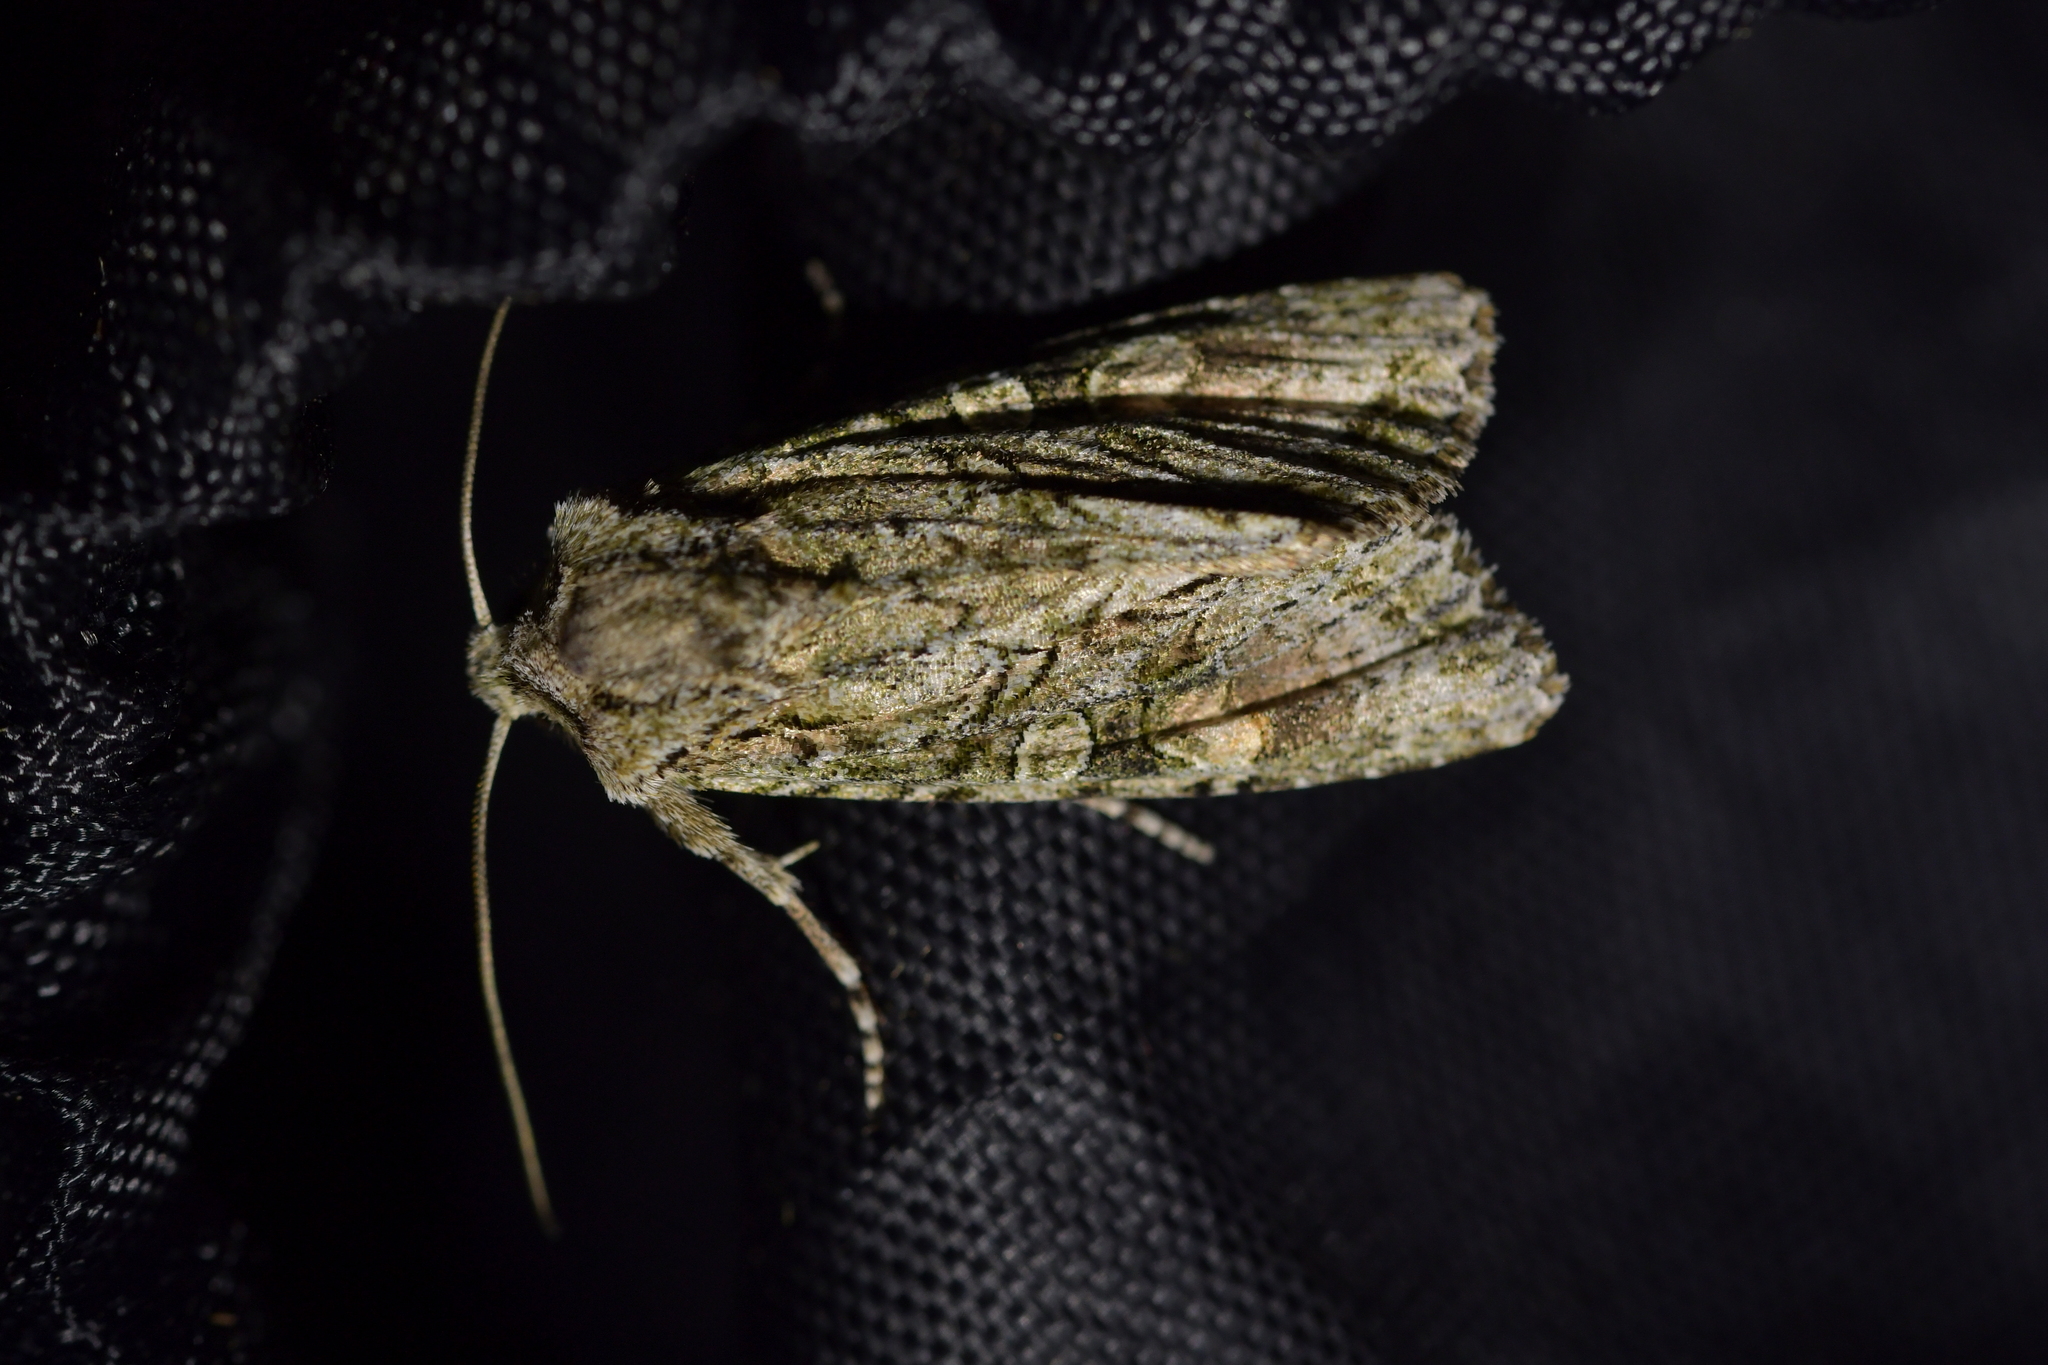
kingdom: Animalia
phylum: Arthropoda
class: Insecta
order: Lepidoptera
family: Noctuidae
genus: Ichneutica
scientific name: Ichneutica mutans
